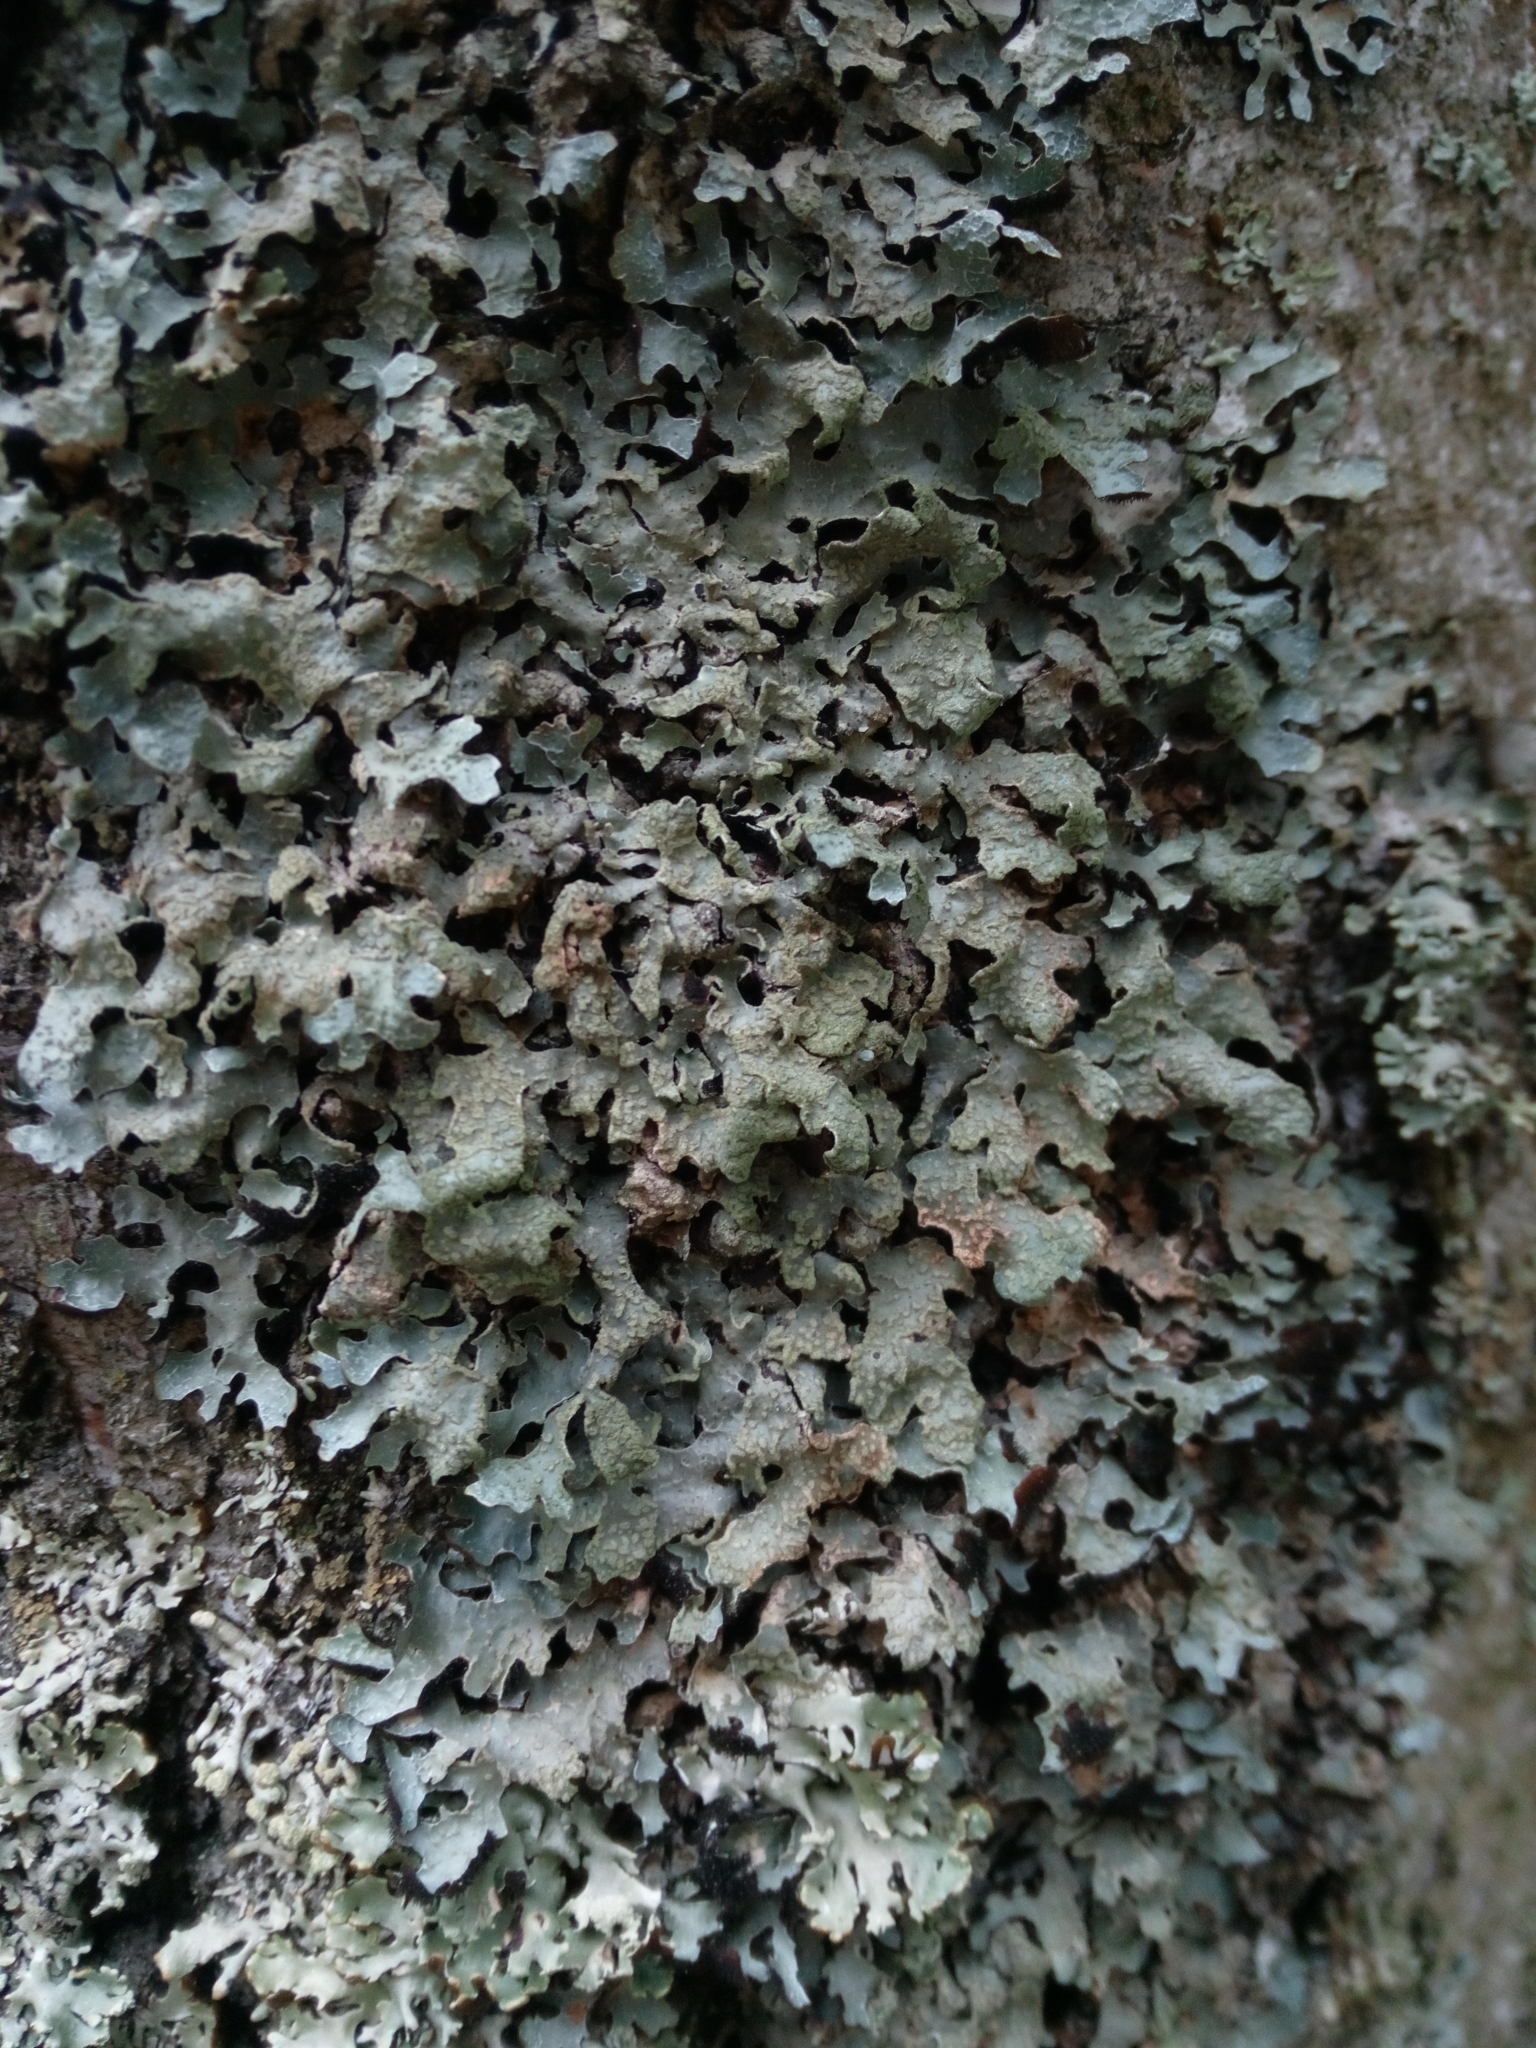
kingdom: Fungi
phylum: Ascomycota
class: Lecanoromycetes
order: Lecanorales
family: Parmeliaceae
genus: Parmelia
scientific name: Parmelia sulcata
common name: Netted shield lichen
